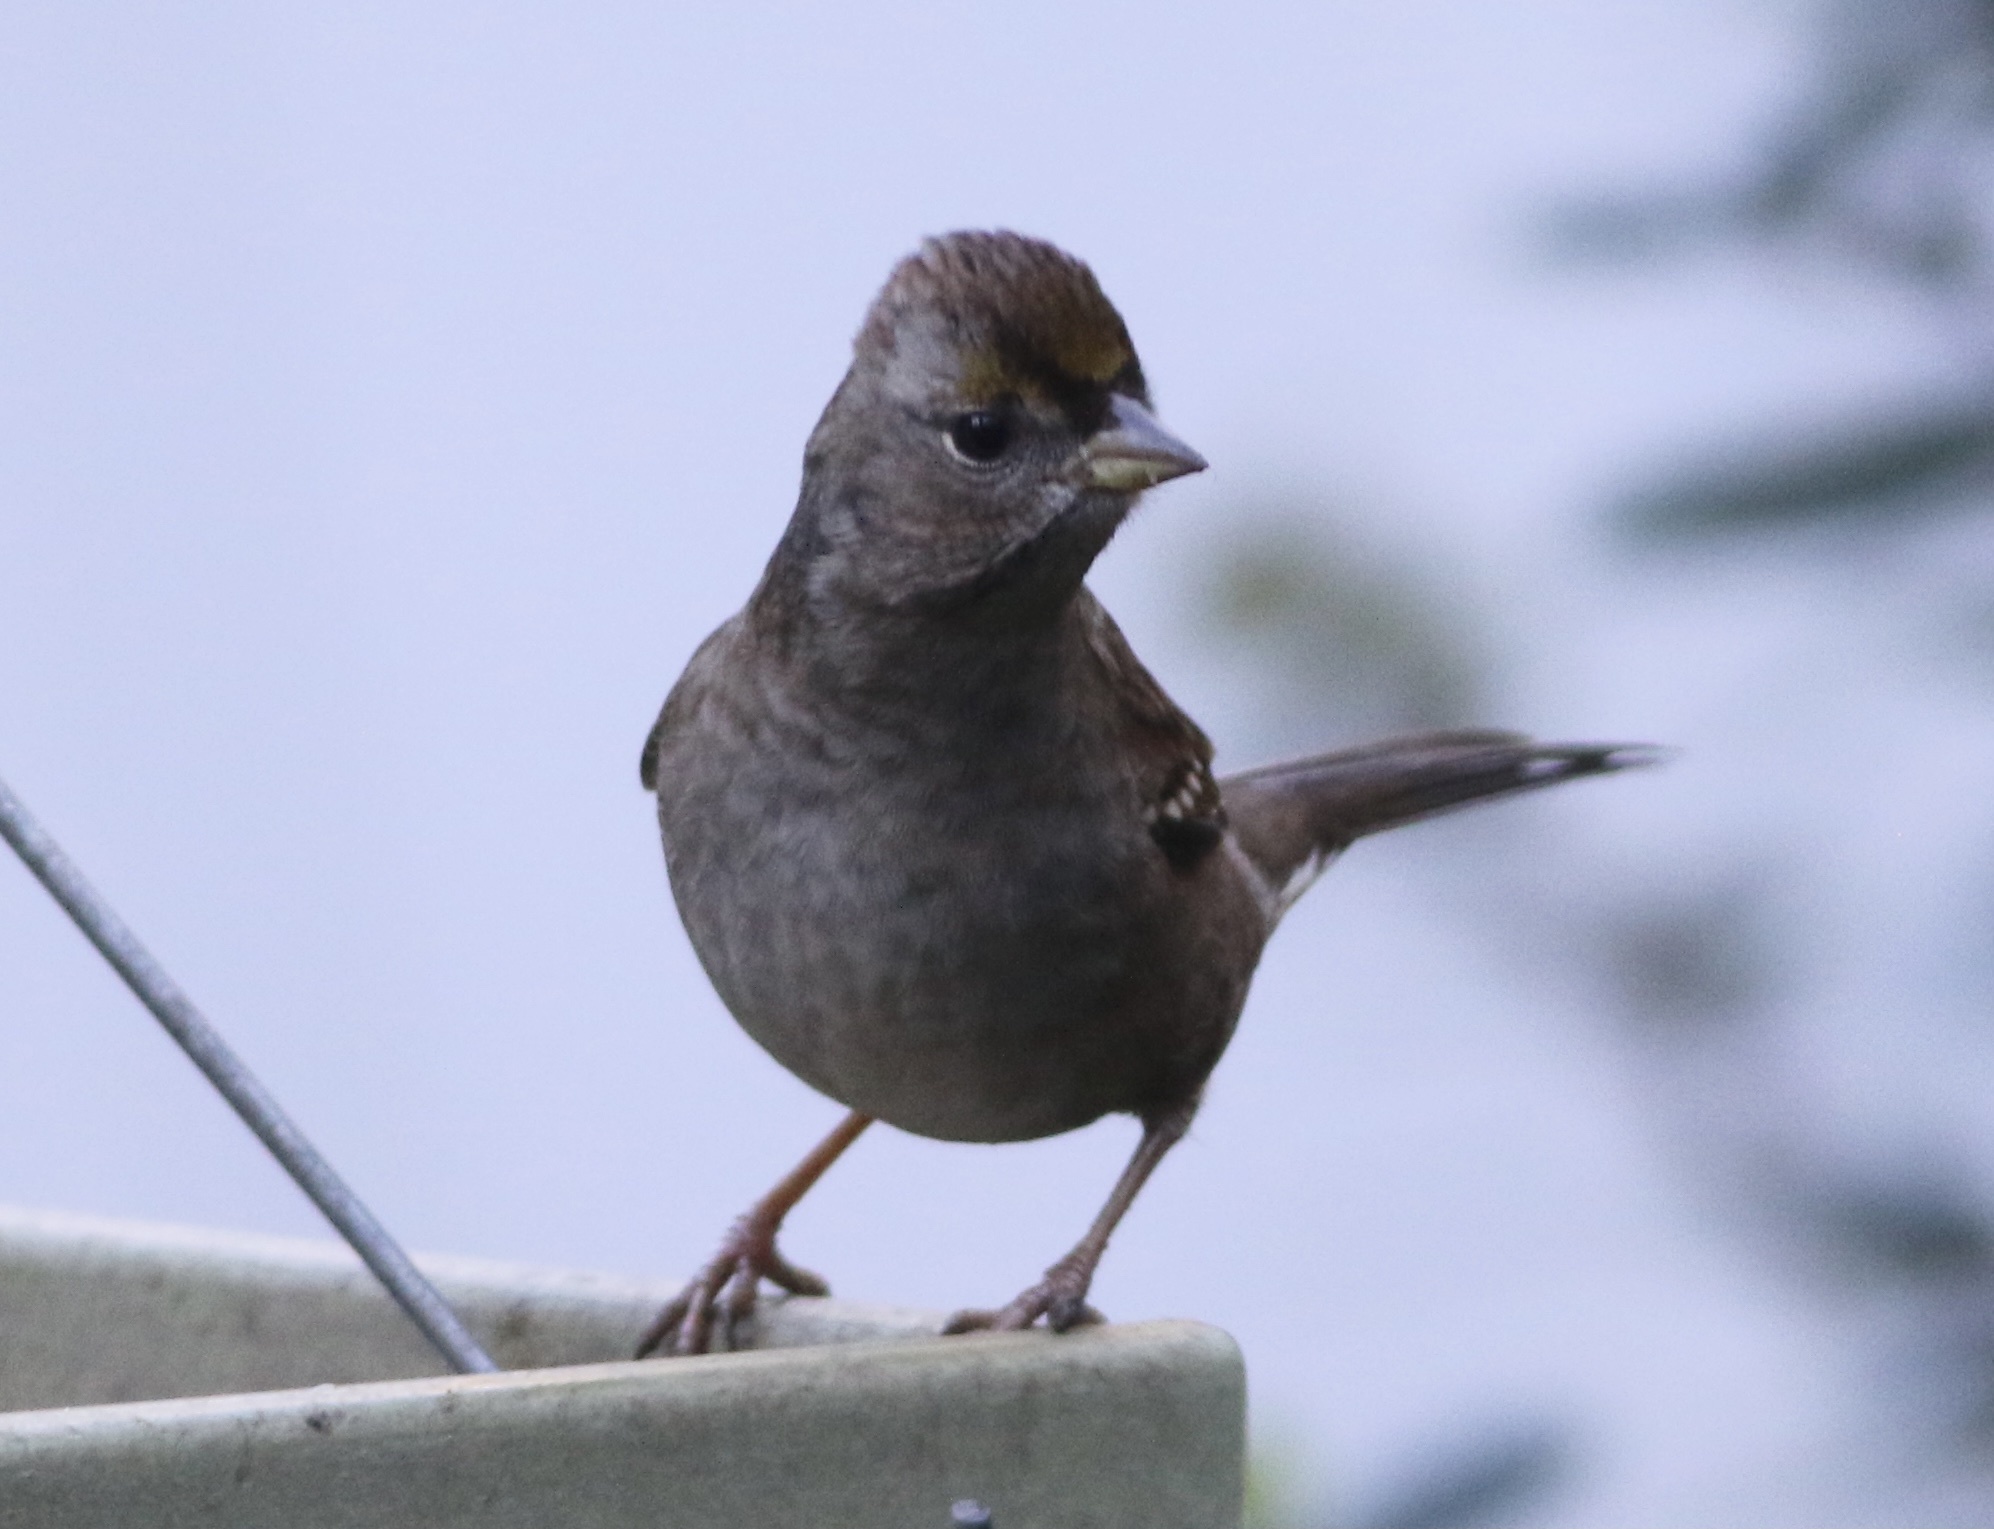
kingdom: Animalia
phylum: Chordata
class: Aves
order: Passeriformes
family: Passerellidae
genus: Zonotrichia
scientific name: Zonotrichia atricapilla
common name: Golden-crowned sparrow
